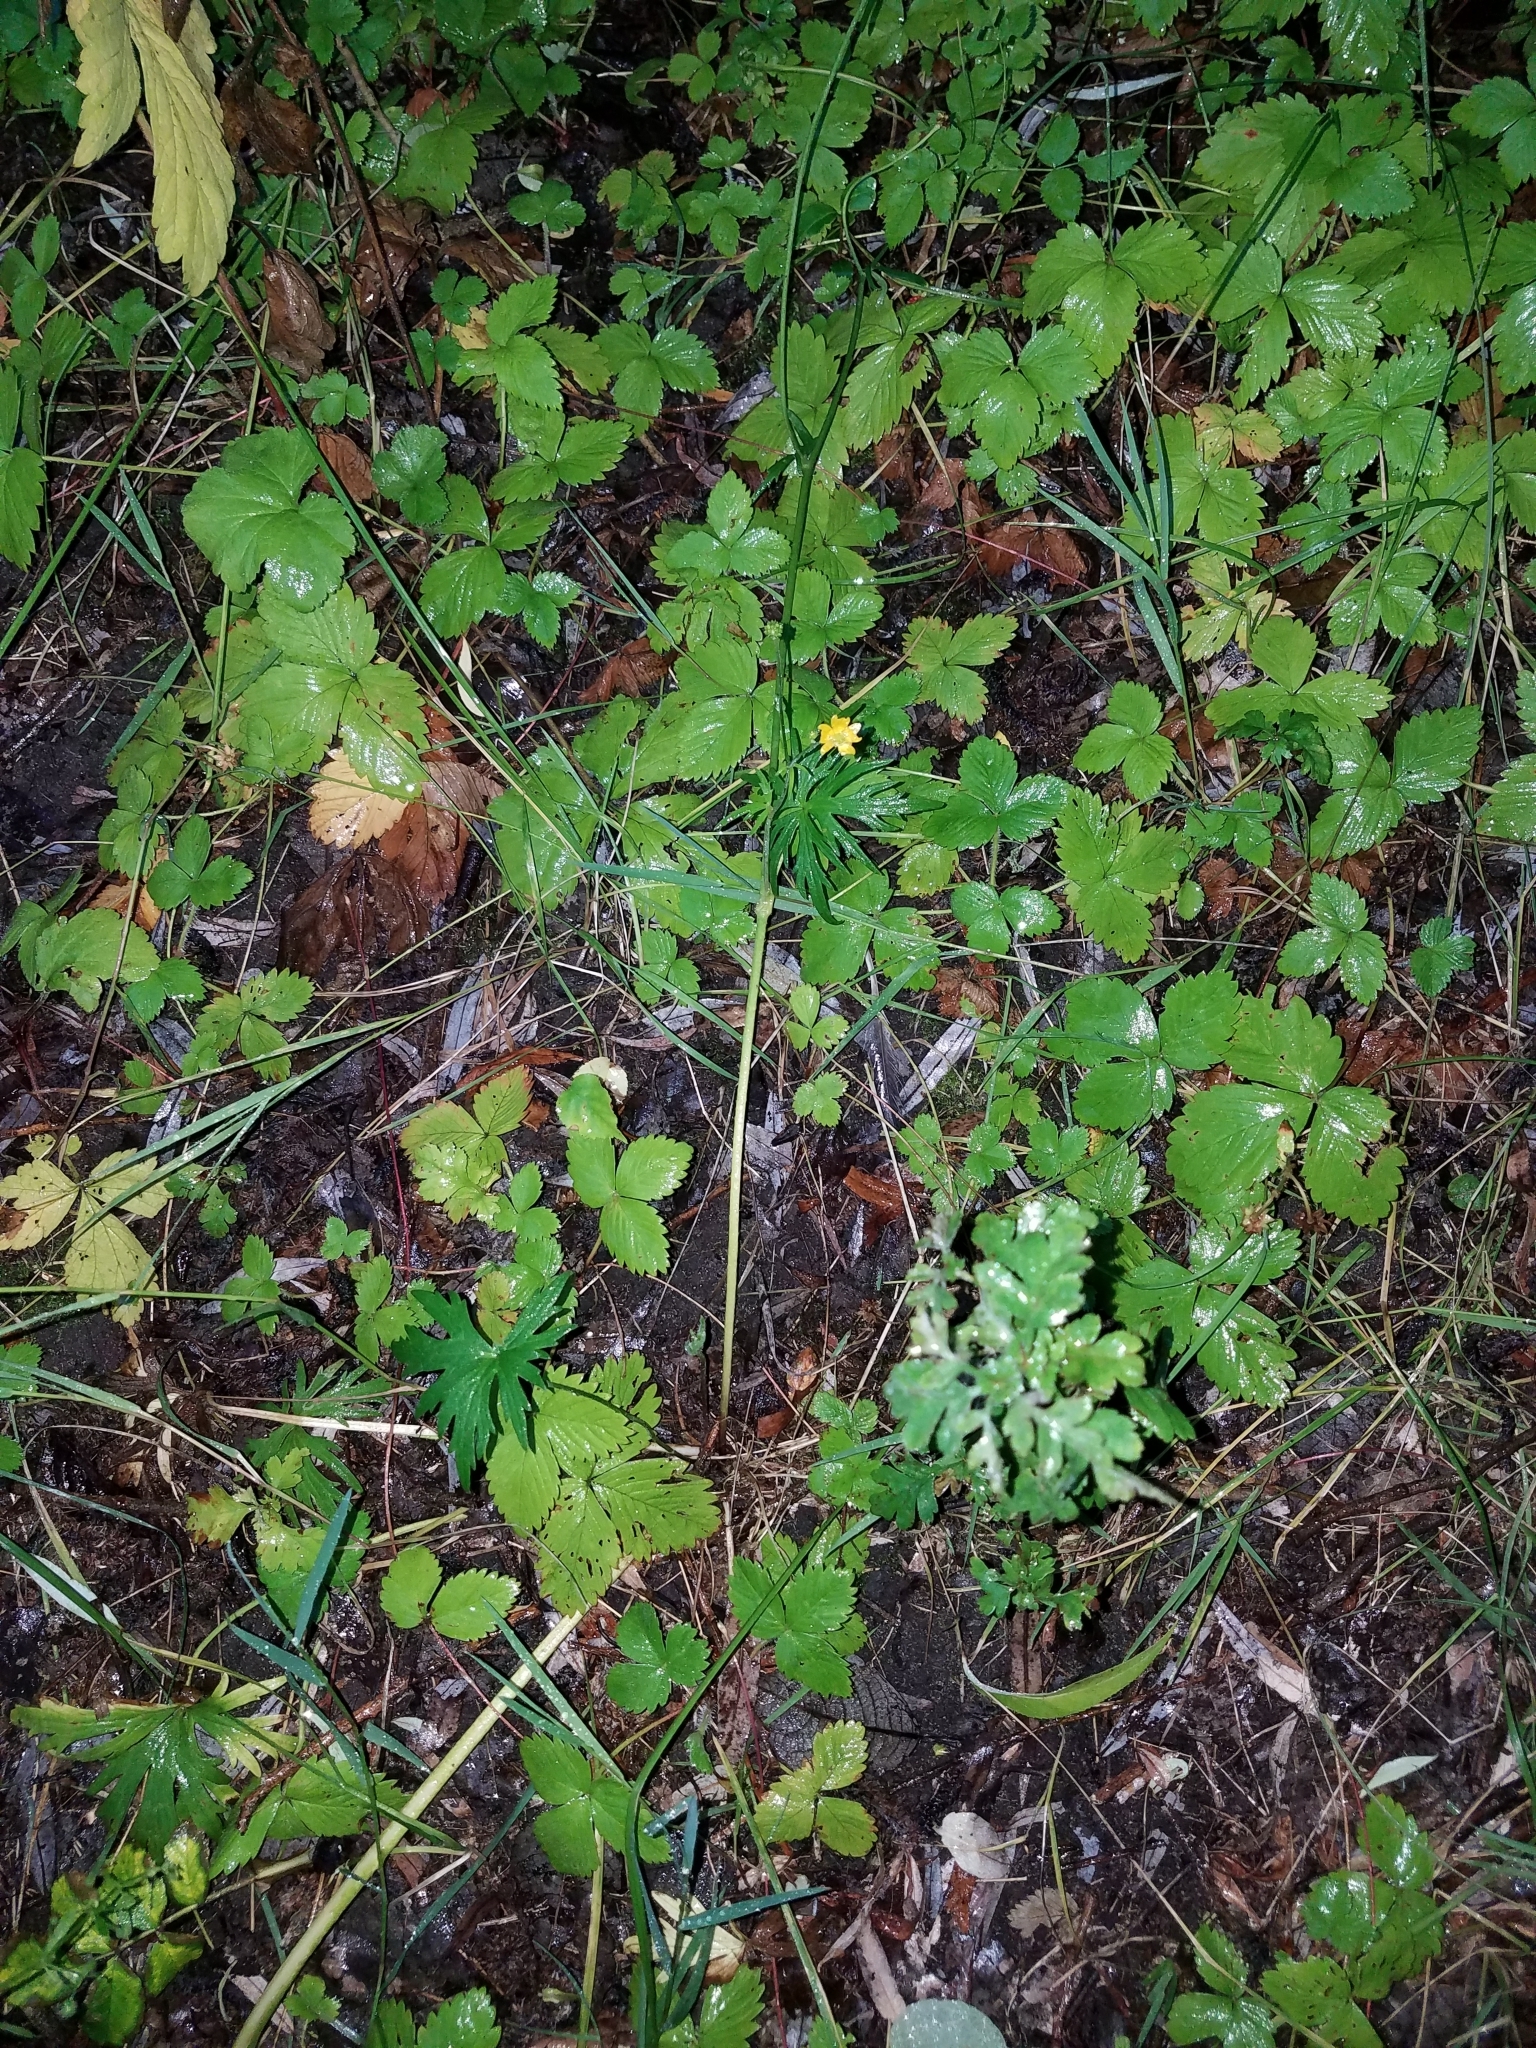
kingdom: Plantae
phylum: Tracheophyta
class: Magnoliopsida
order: Ranunculales
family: Ranunculaceae
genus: Ranunculus
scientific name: Ranunculus acris
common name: Meadow buttercup
